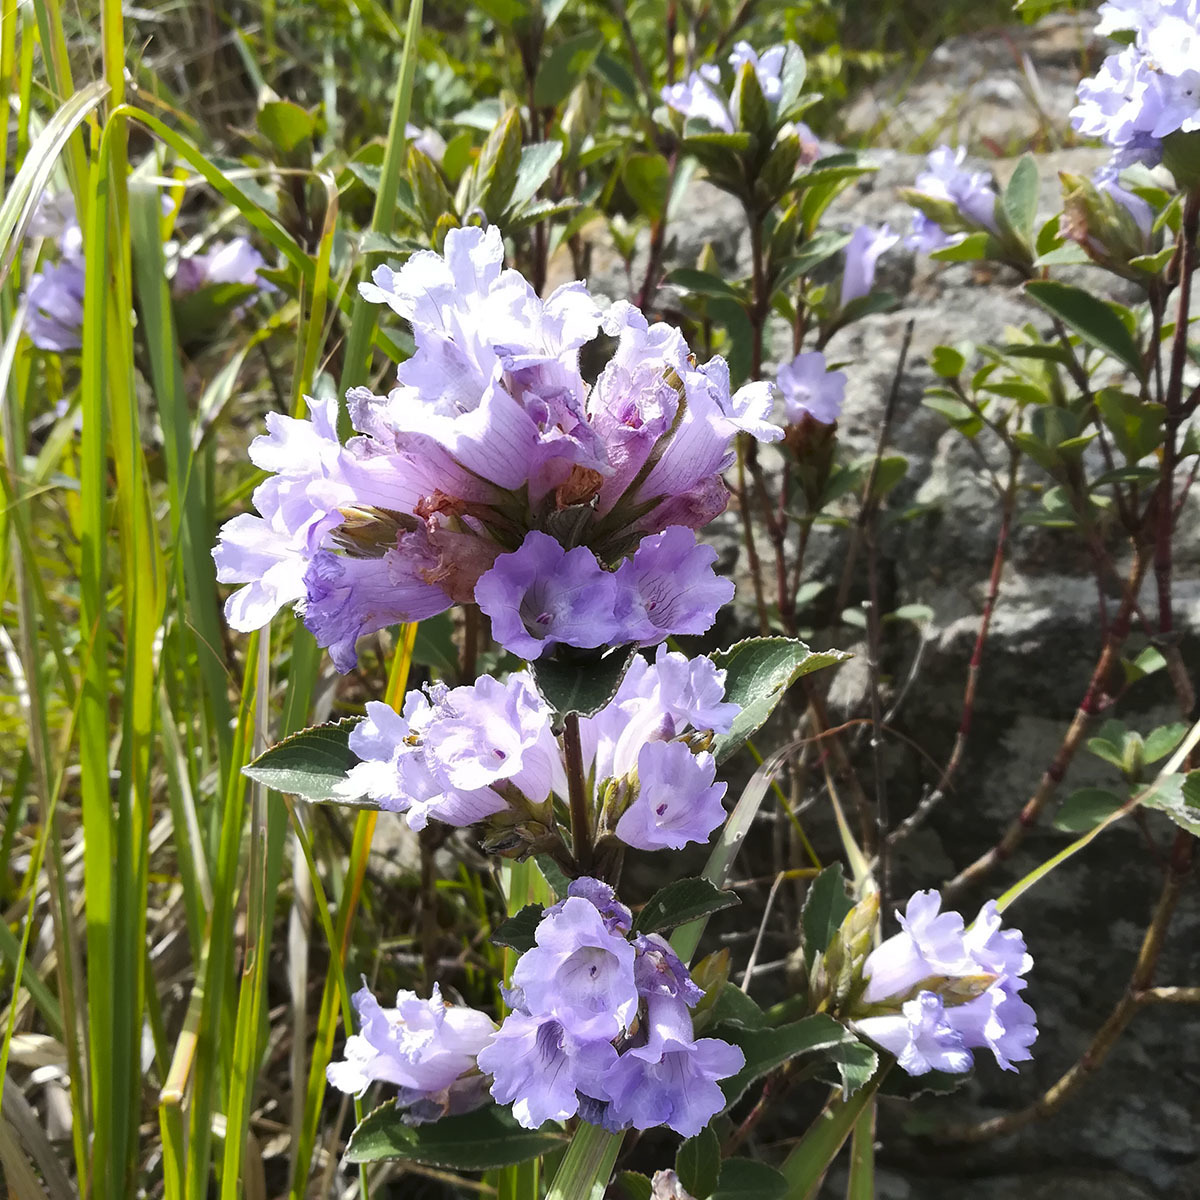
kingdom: Plantae
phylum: Tracheophyta
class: Magnoliopsida
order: Lamiales
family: Acanthaceae
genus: Strobilanthes
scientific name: Strobilanthes kunthiana
